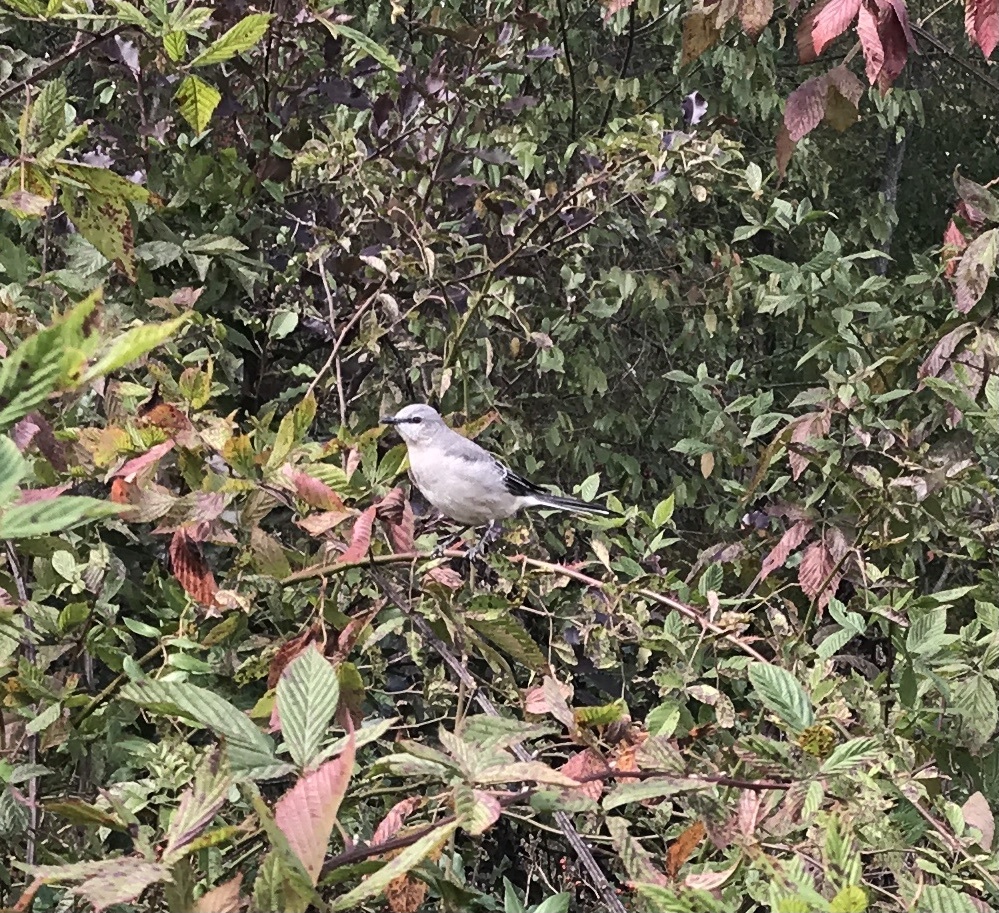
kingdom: Animalia
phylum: Chordata
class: Aves
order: Passeriformes
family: Mimidae
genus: Mimus
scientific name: Mimus polyglottos
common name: Northern mockingbird
